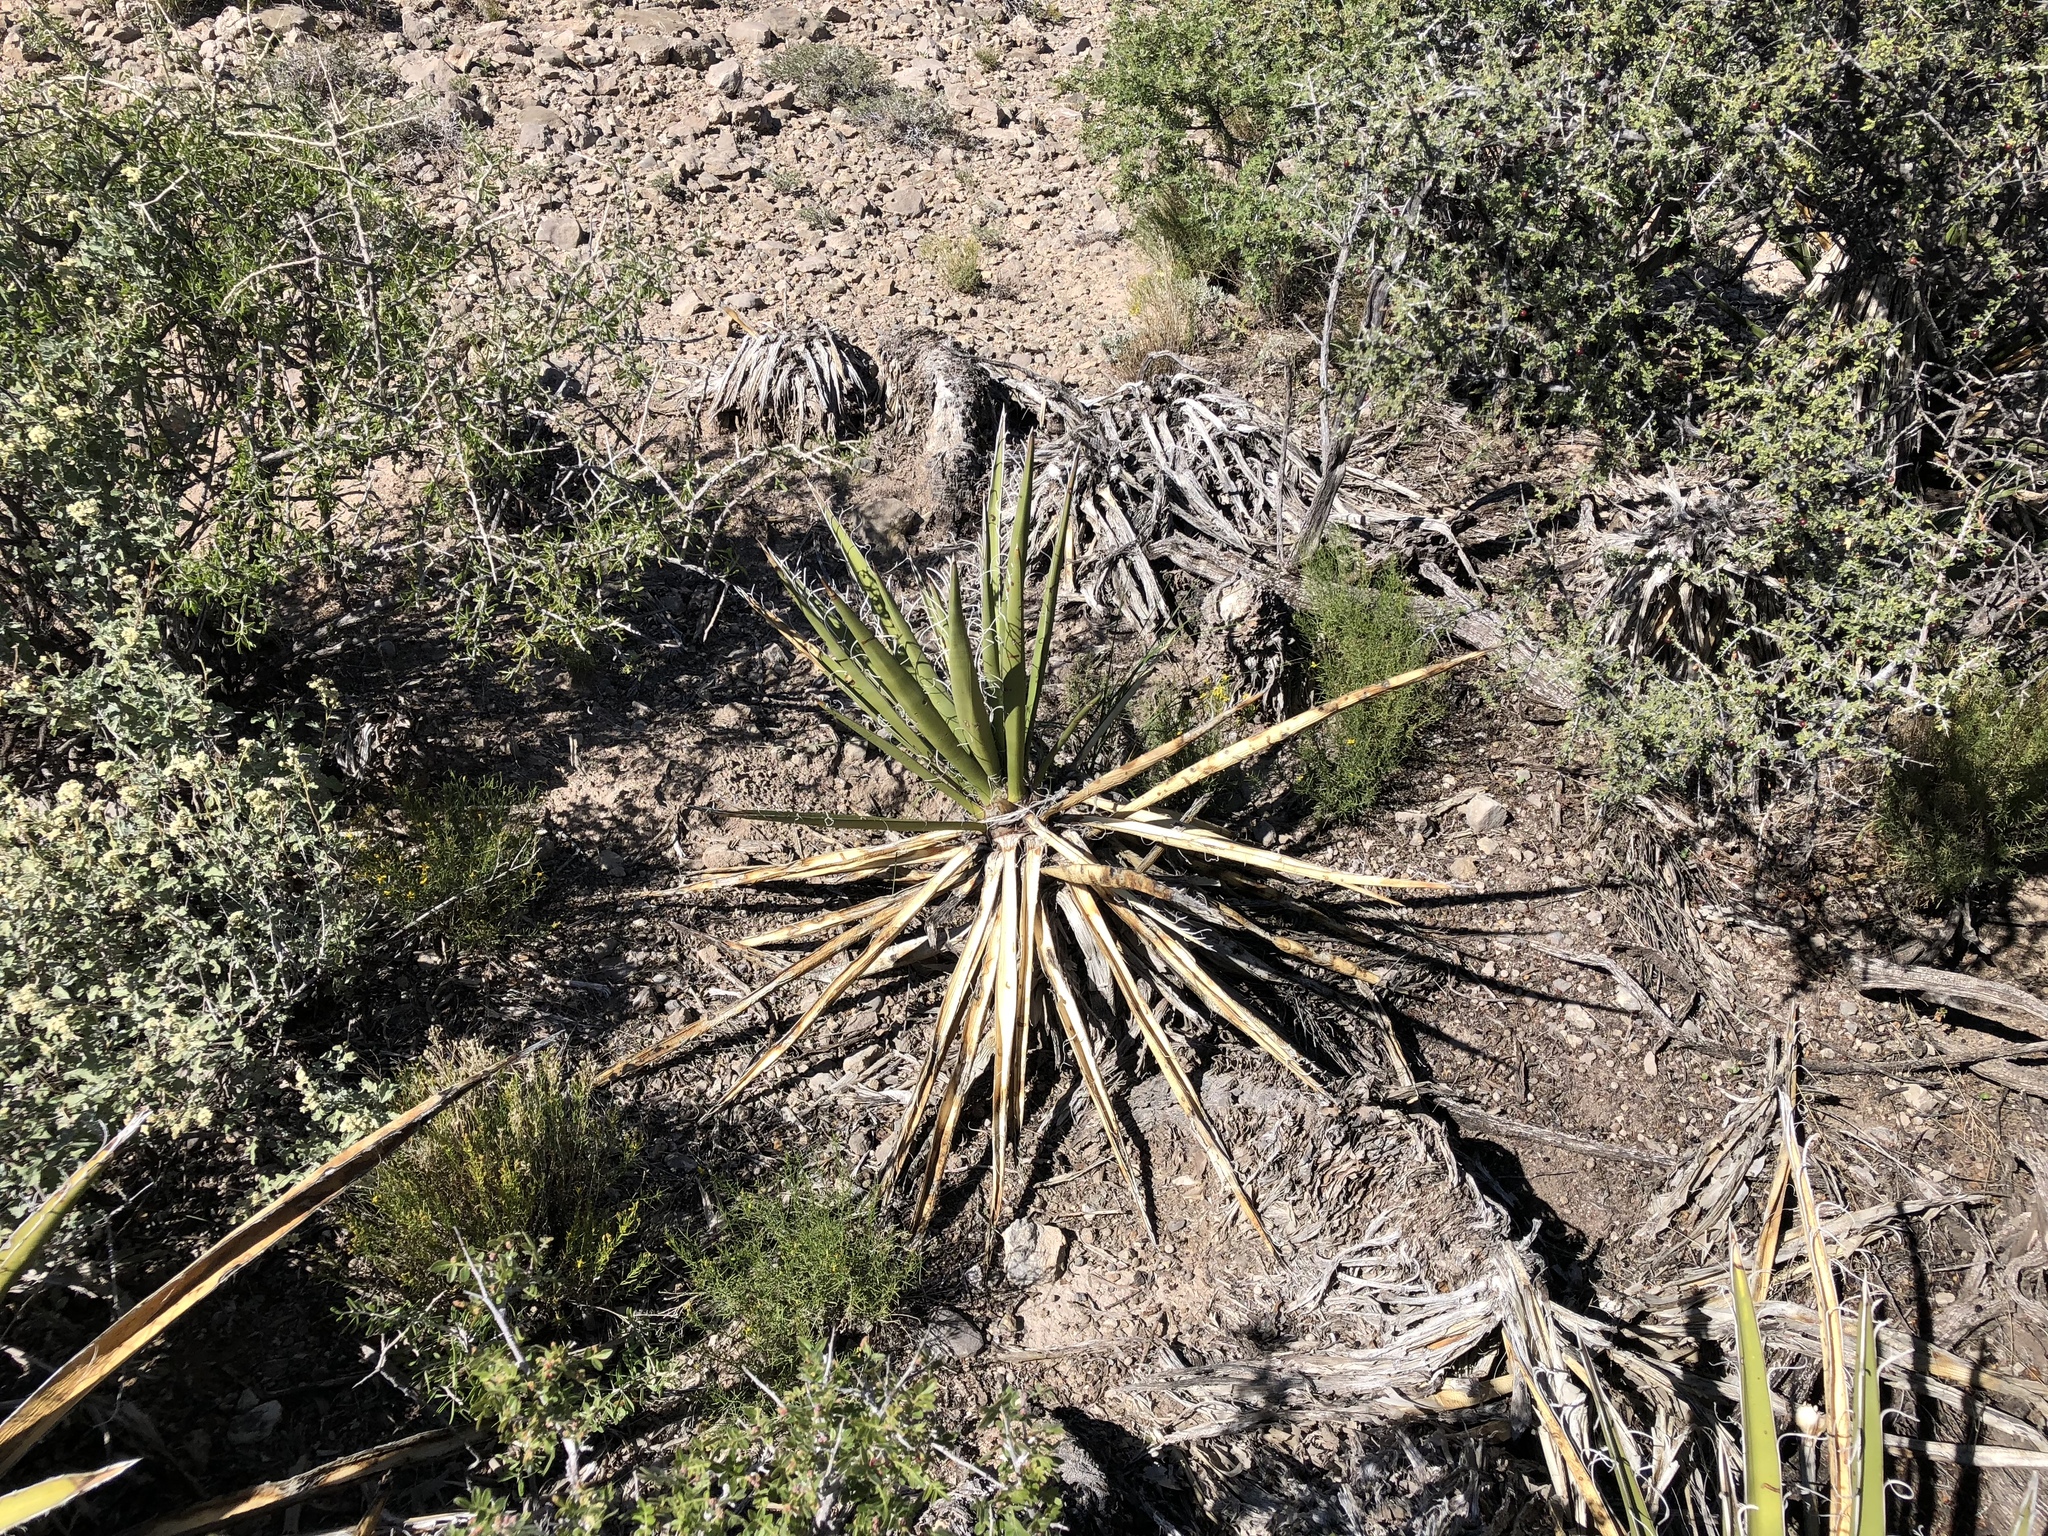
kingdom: Plantae
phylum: Tracheophyta
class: Liliopsida
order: Asparagales
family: Asparagaceae
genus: Yucca
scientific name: Yucca baccata
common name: Banana yucca
